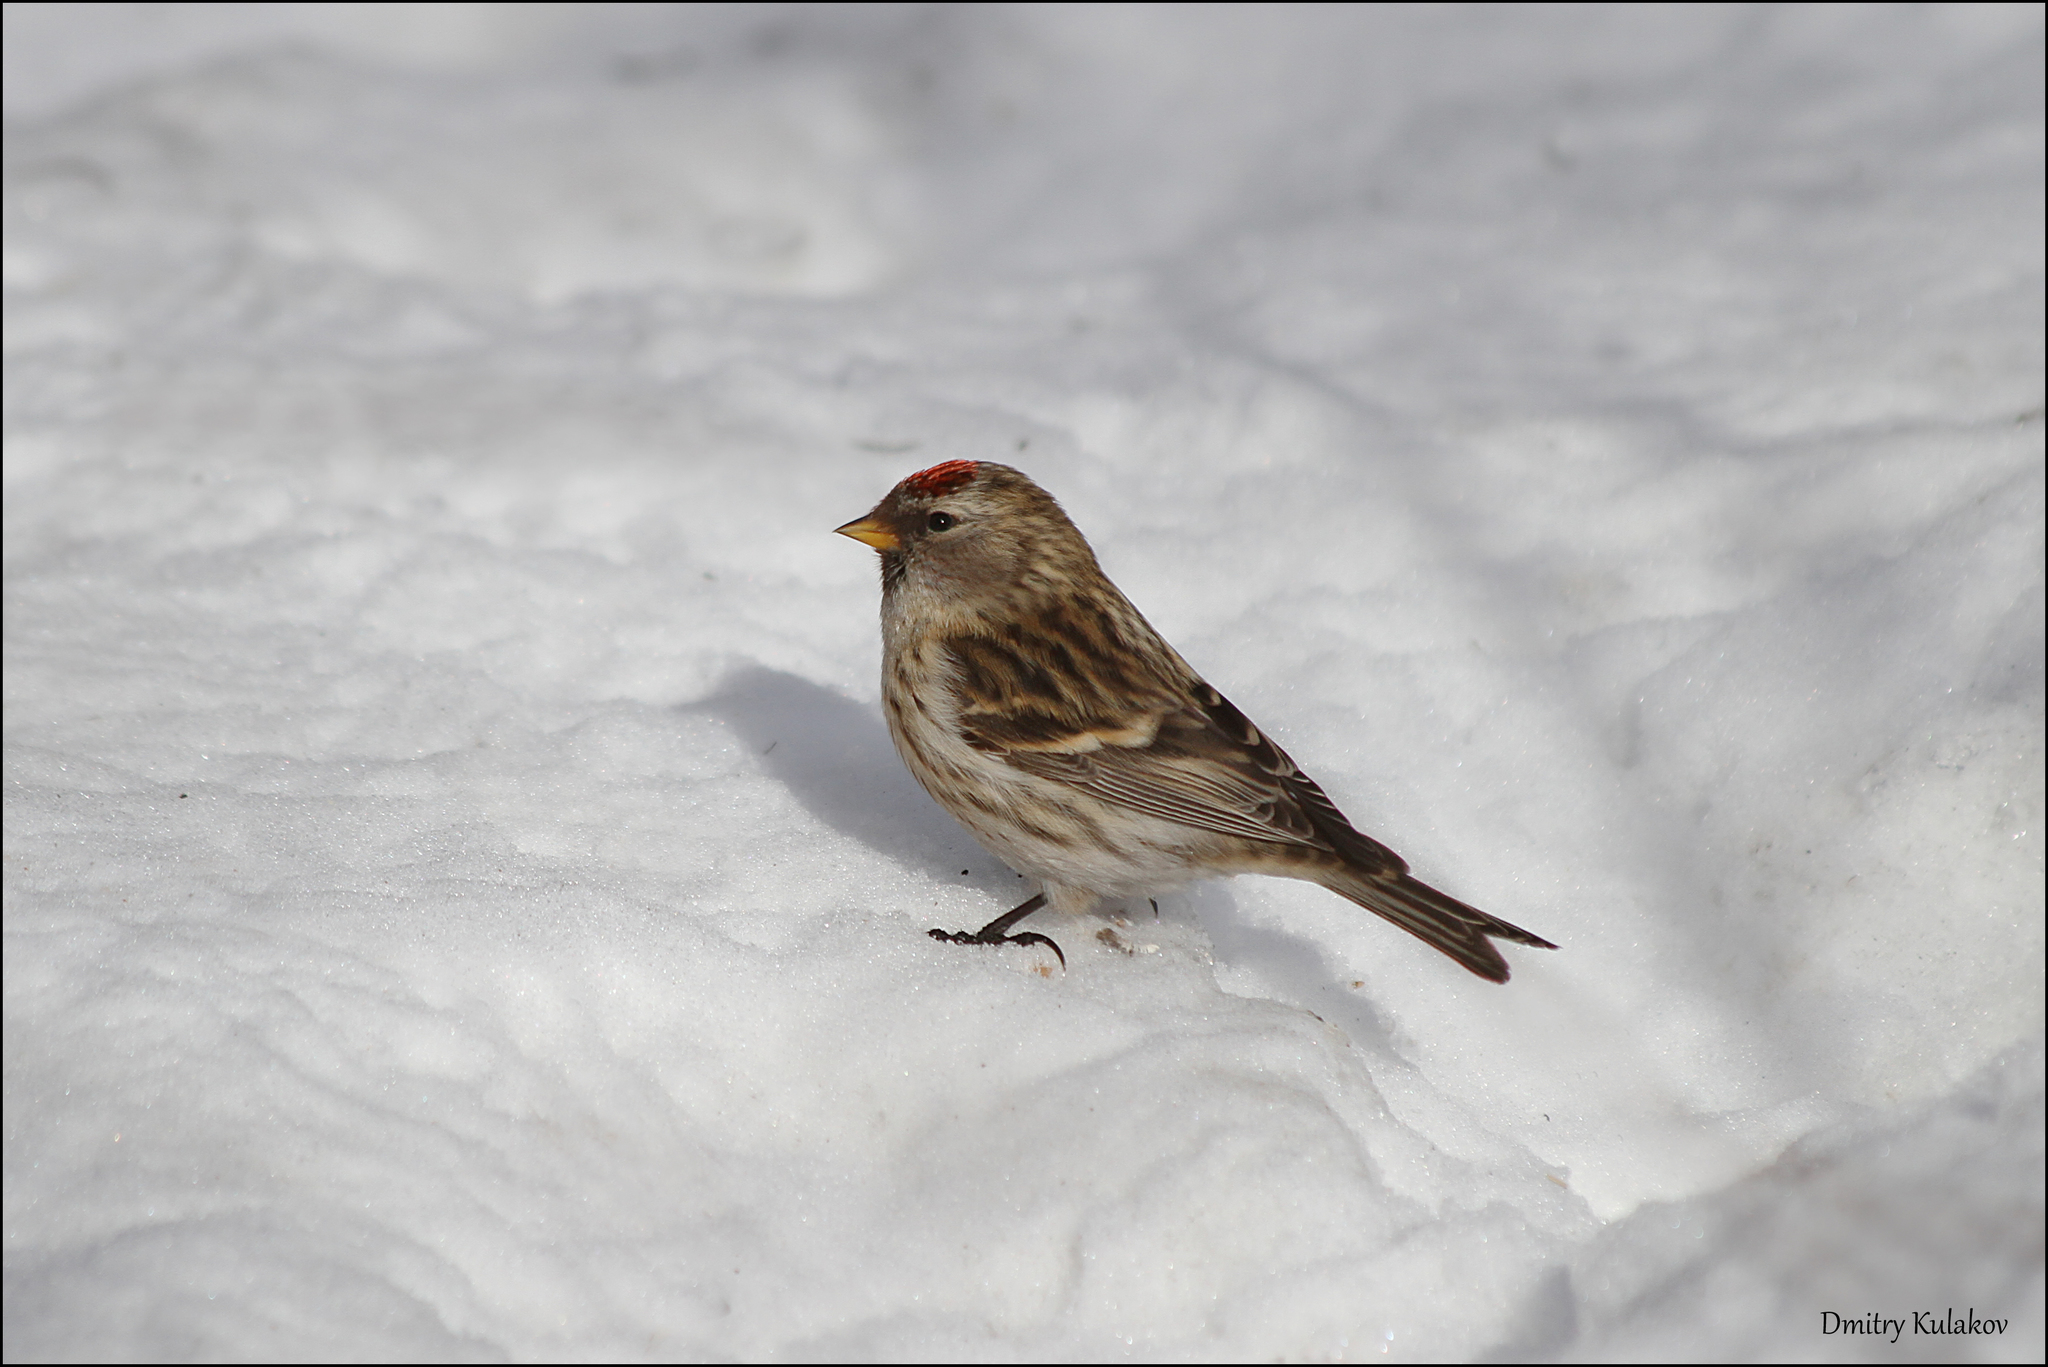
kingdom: Animalia
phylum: Chordata
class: Aves
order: Passeriformes
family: Fringillidae
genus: Acanthis
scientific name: Acanthis flammea
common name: Common redpoll
